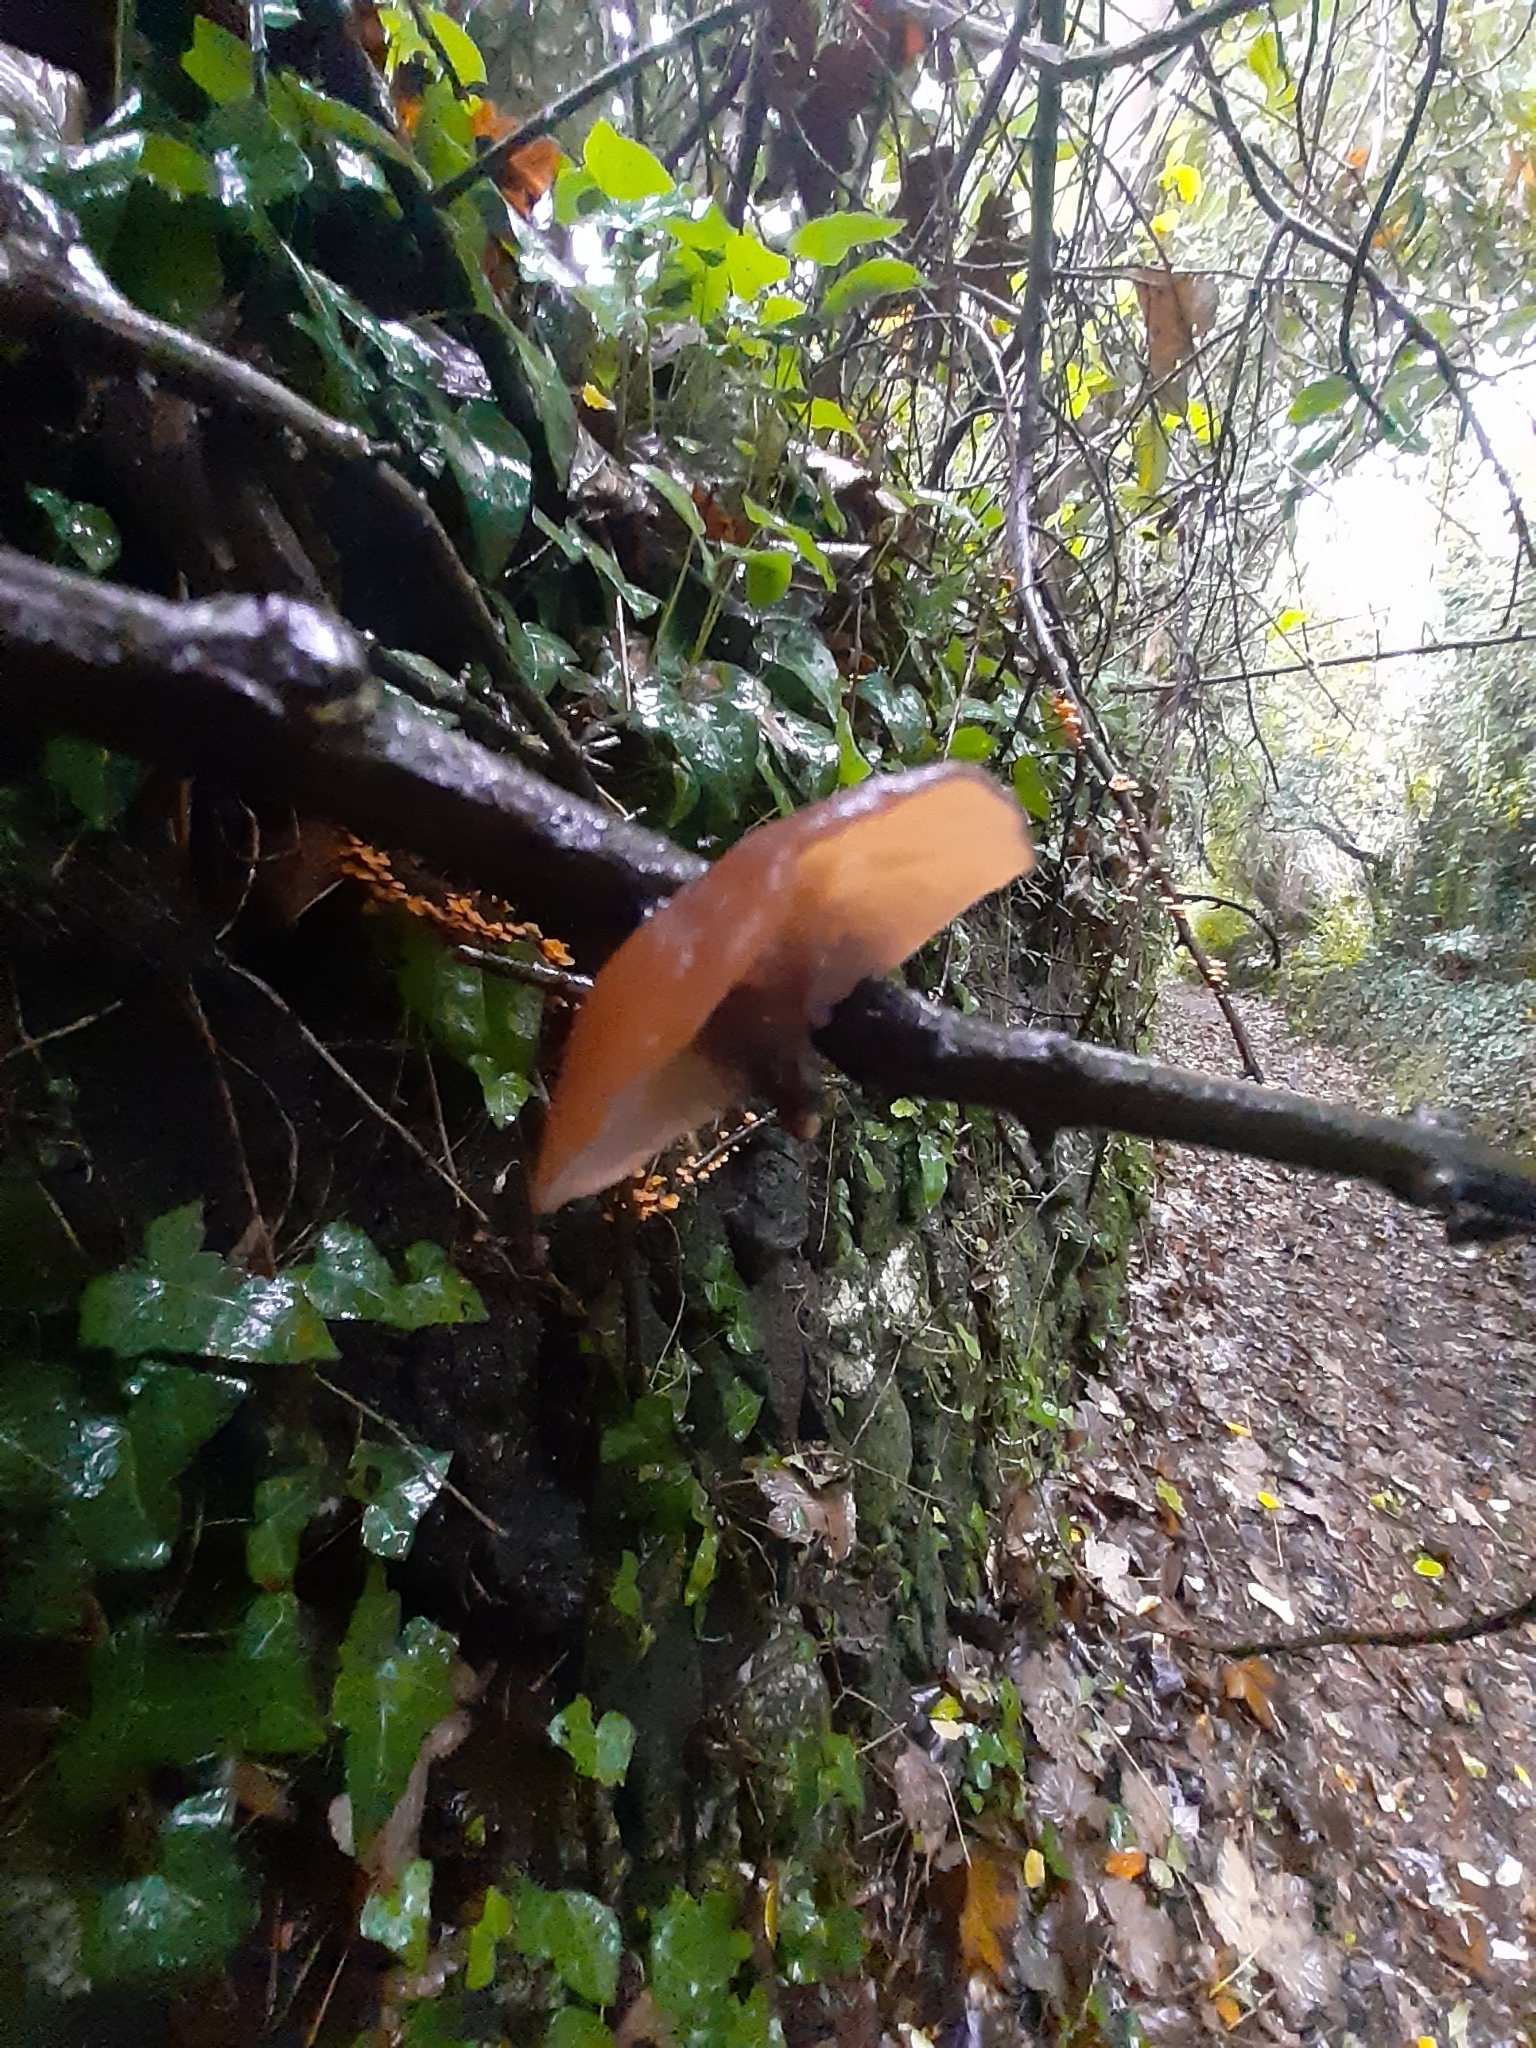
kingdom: Fungi
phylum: Basidiomycota
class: Agaricomycetes
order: Auriculariales
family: Auriculariaceae
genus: Auricularia
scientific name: Auricularia auricula-judae
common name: Jelly ear
